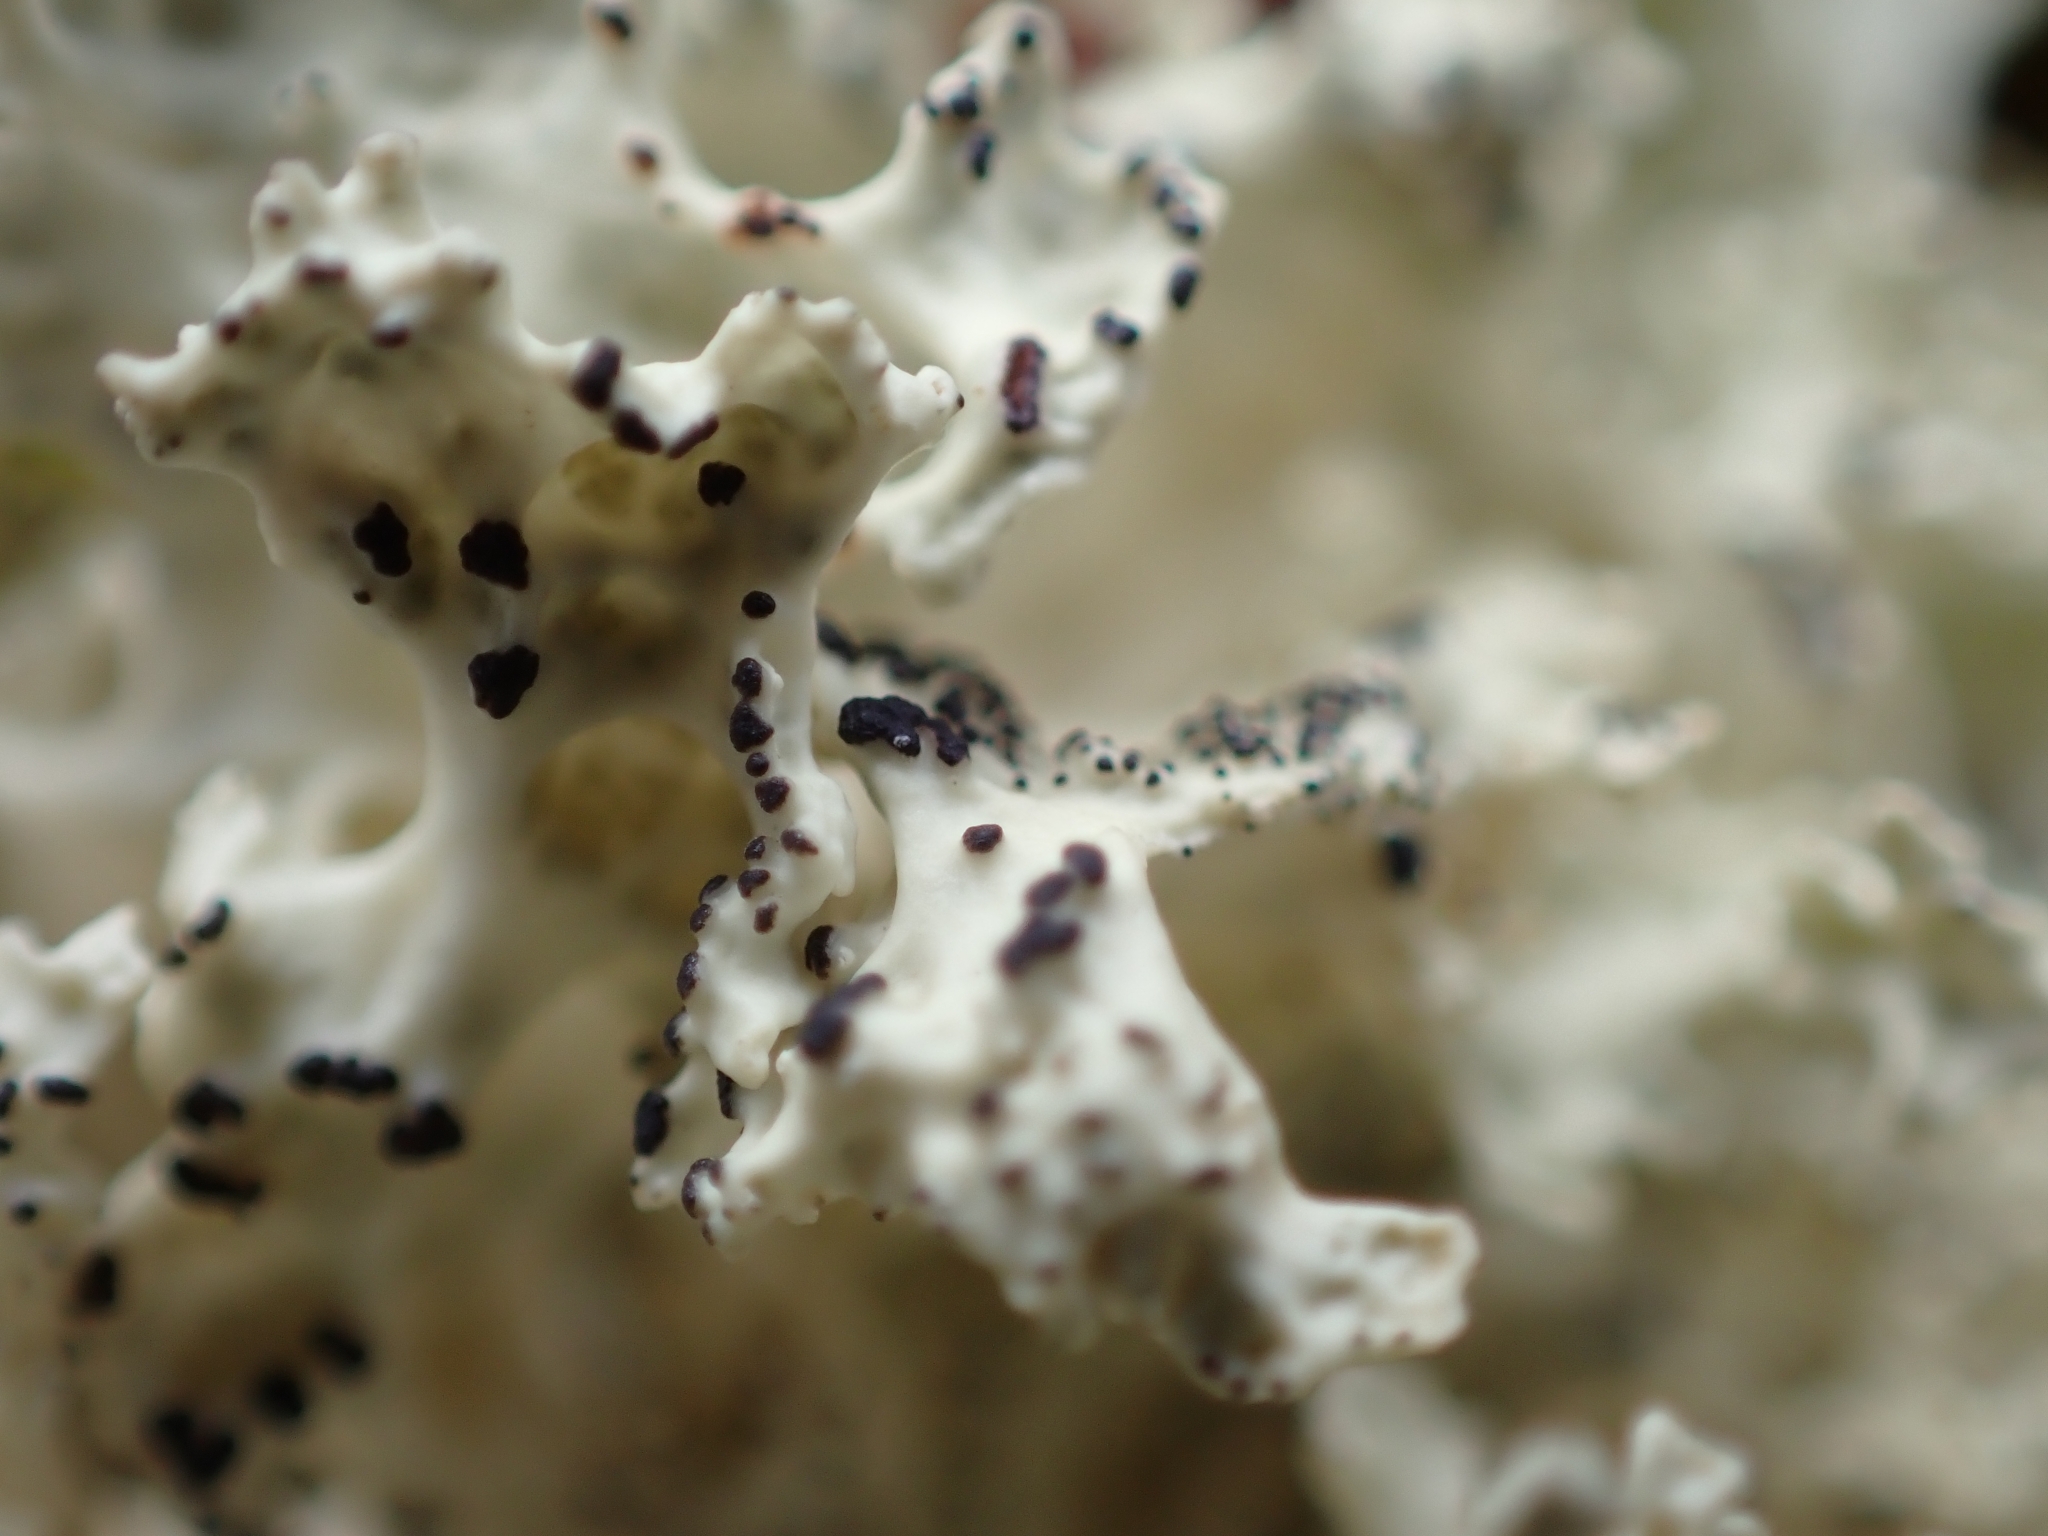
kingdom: Fungi
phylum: Ascomycota
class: Lecanoromycetes
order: Lecanorales
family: Parmeliaceae
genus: Nephromopsis
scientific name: Nephromopsis nivalis
